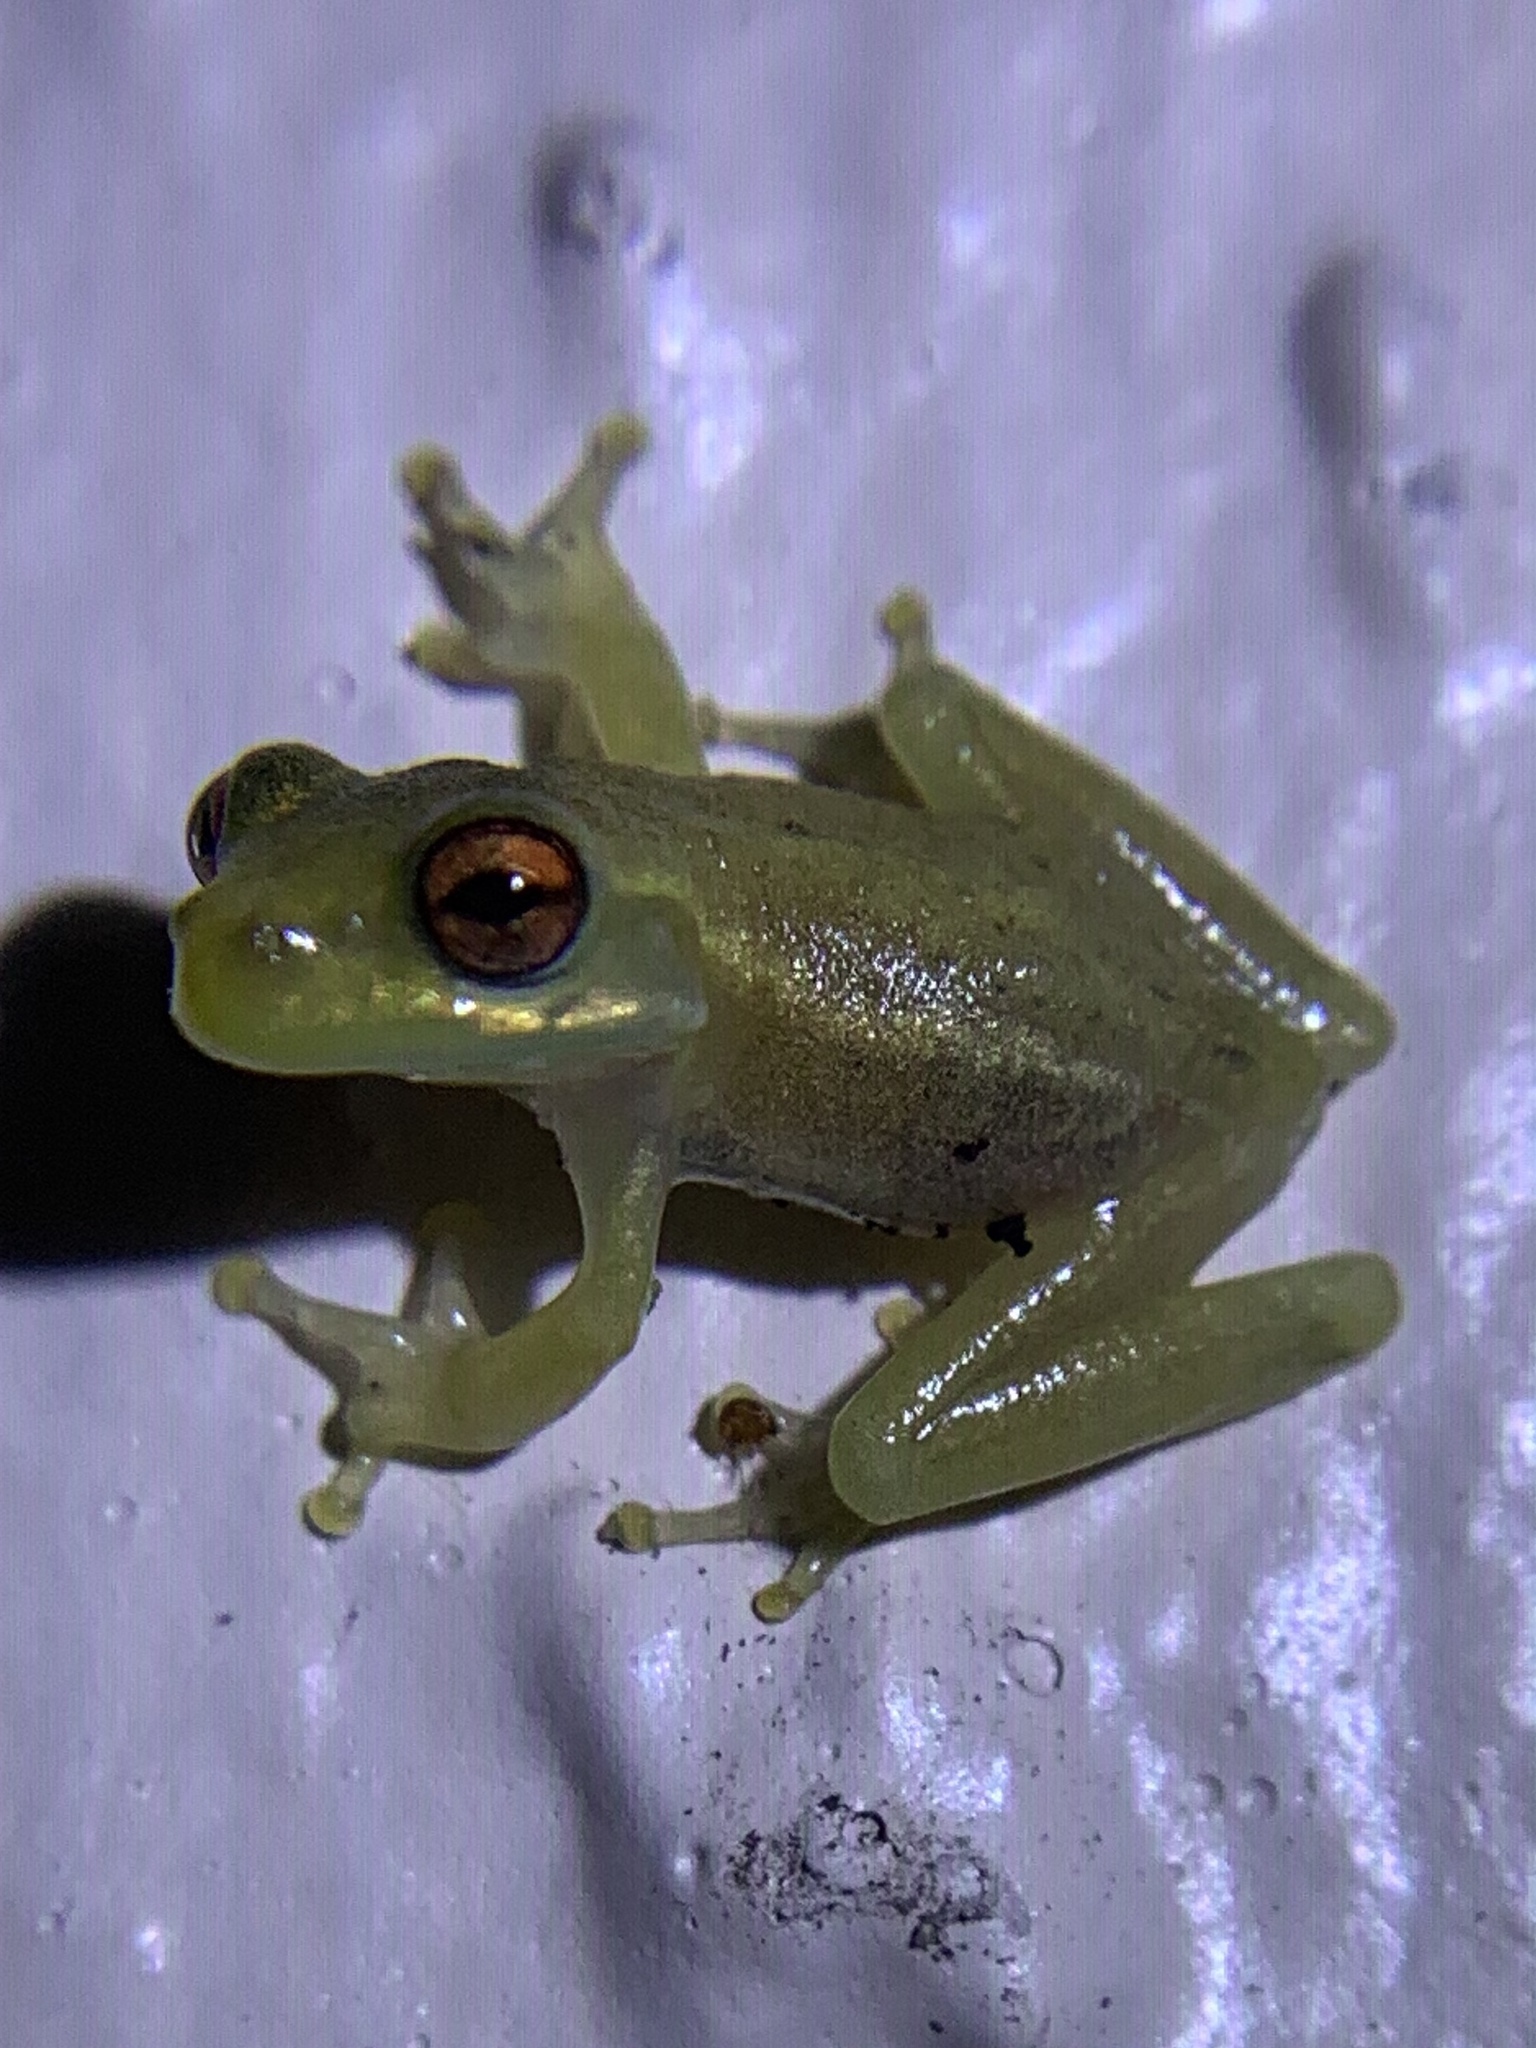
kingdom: Animalia
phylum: Chordata
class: Amphibia
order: Anura
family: Hylidae
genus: Osteopilus
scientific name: Osteopilus septentrionalis
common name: Cuban treefrog
